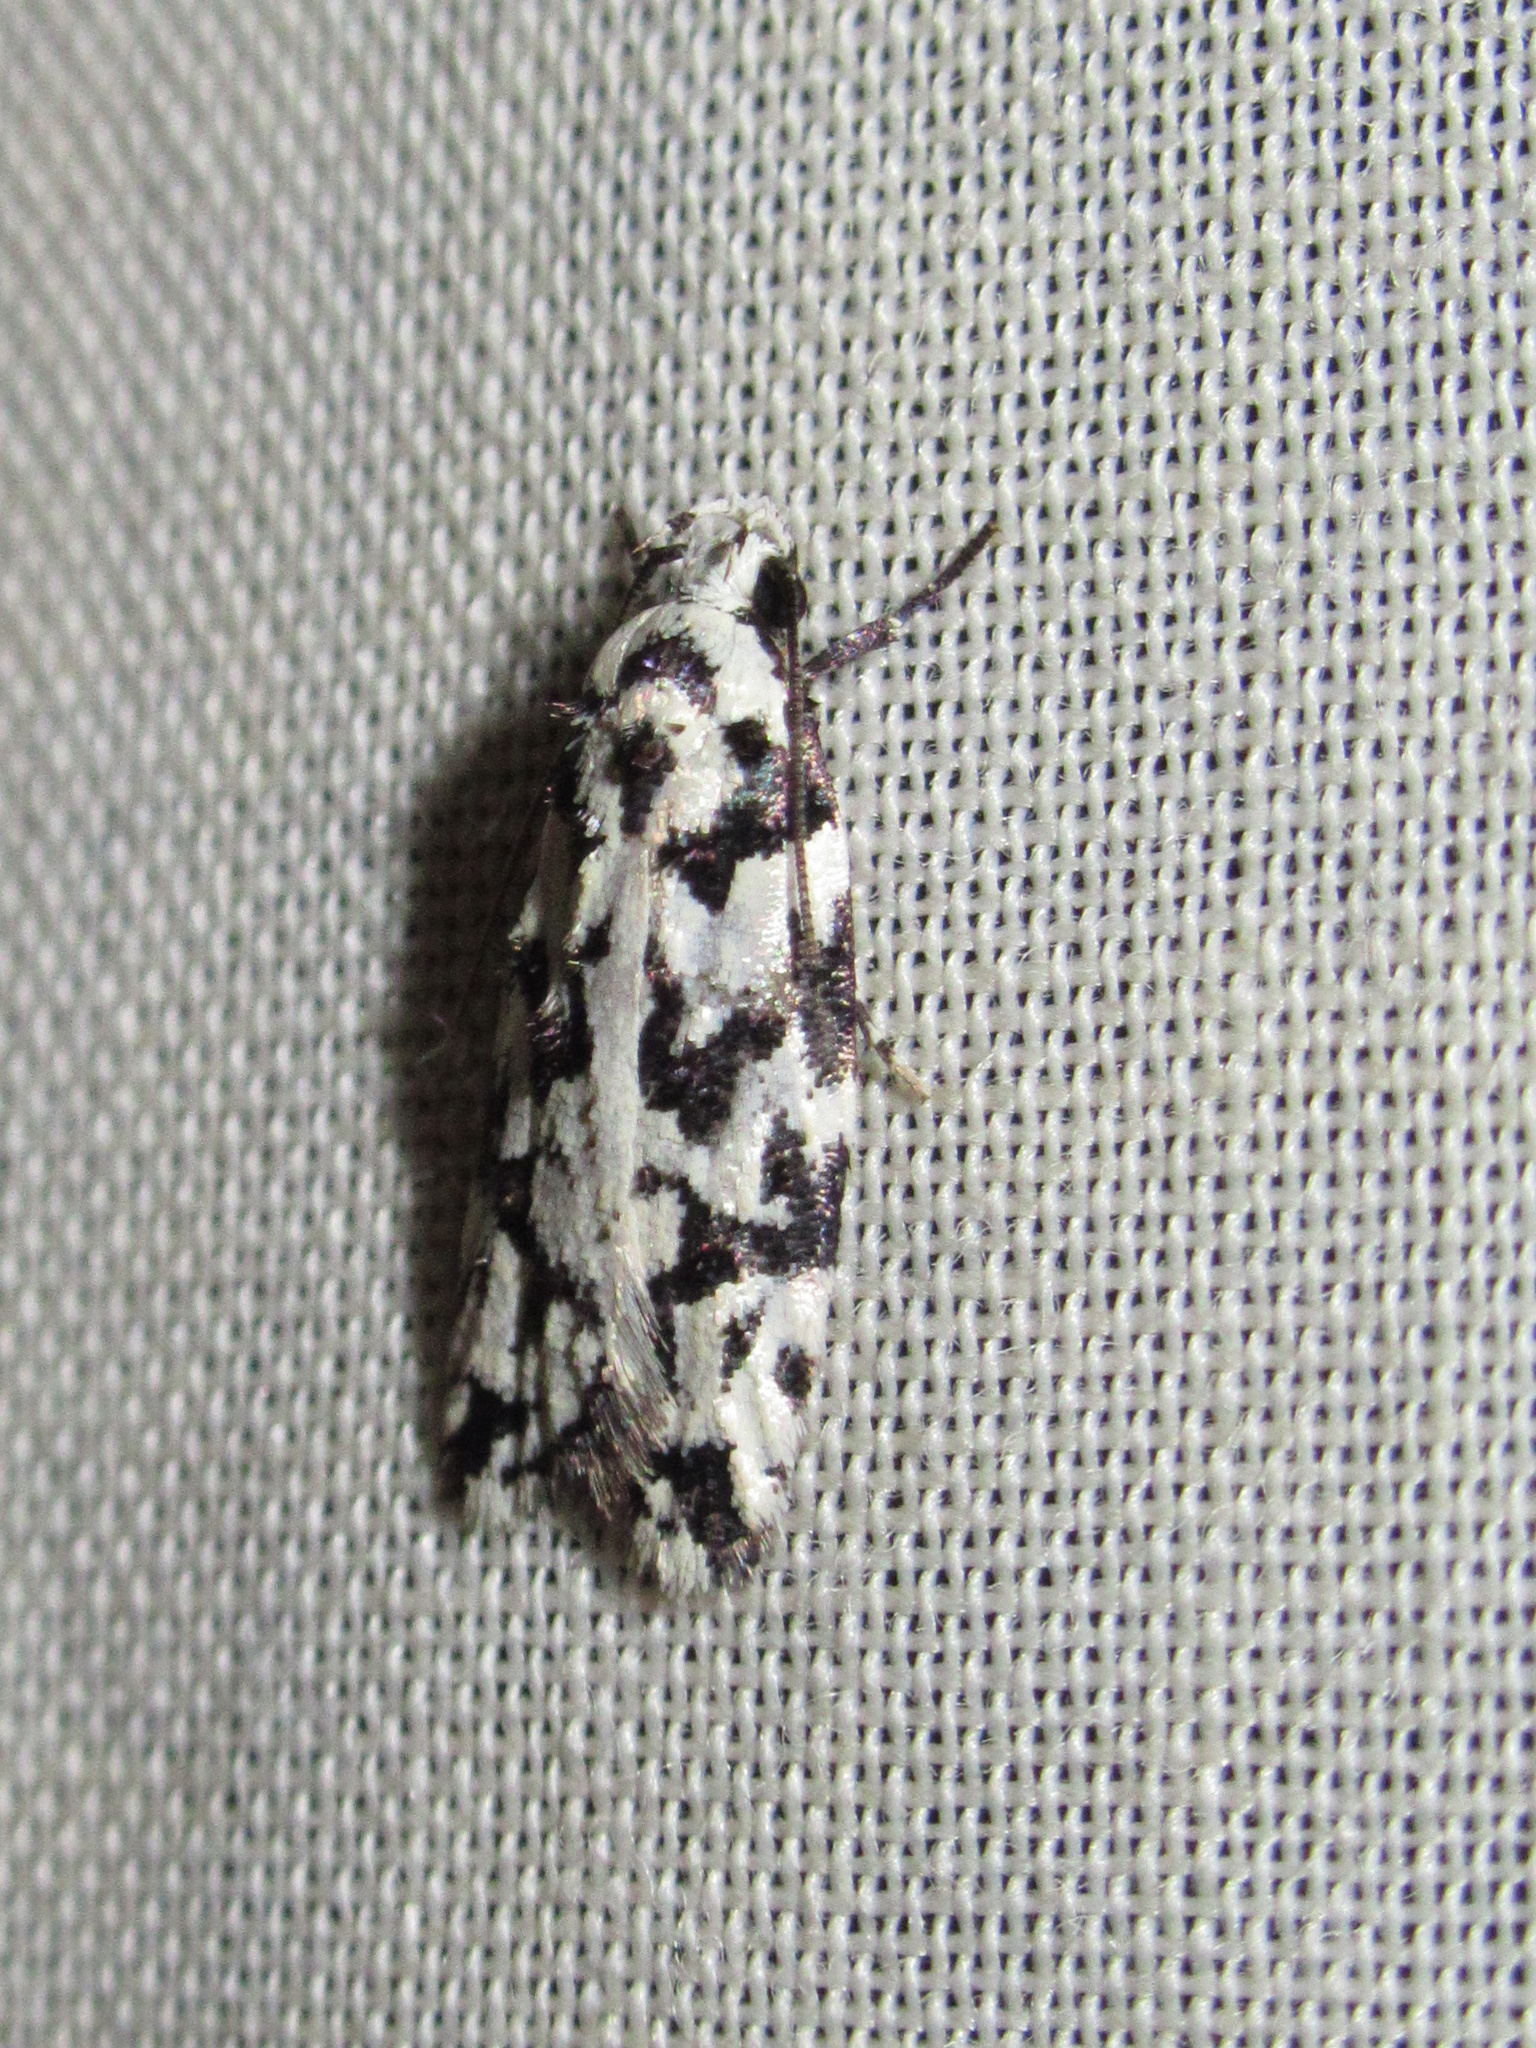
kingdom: Animalia
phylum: Arthropoda
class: Insecta
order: Lepidoptera
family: Oecophoridae
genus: Izatha
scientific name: Izatha
